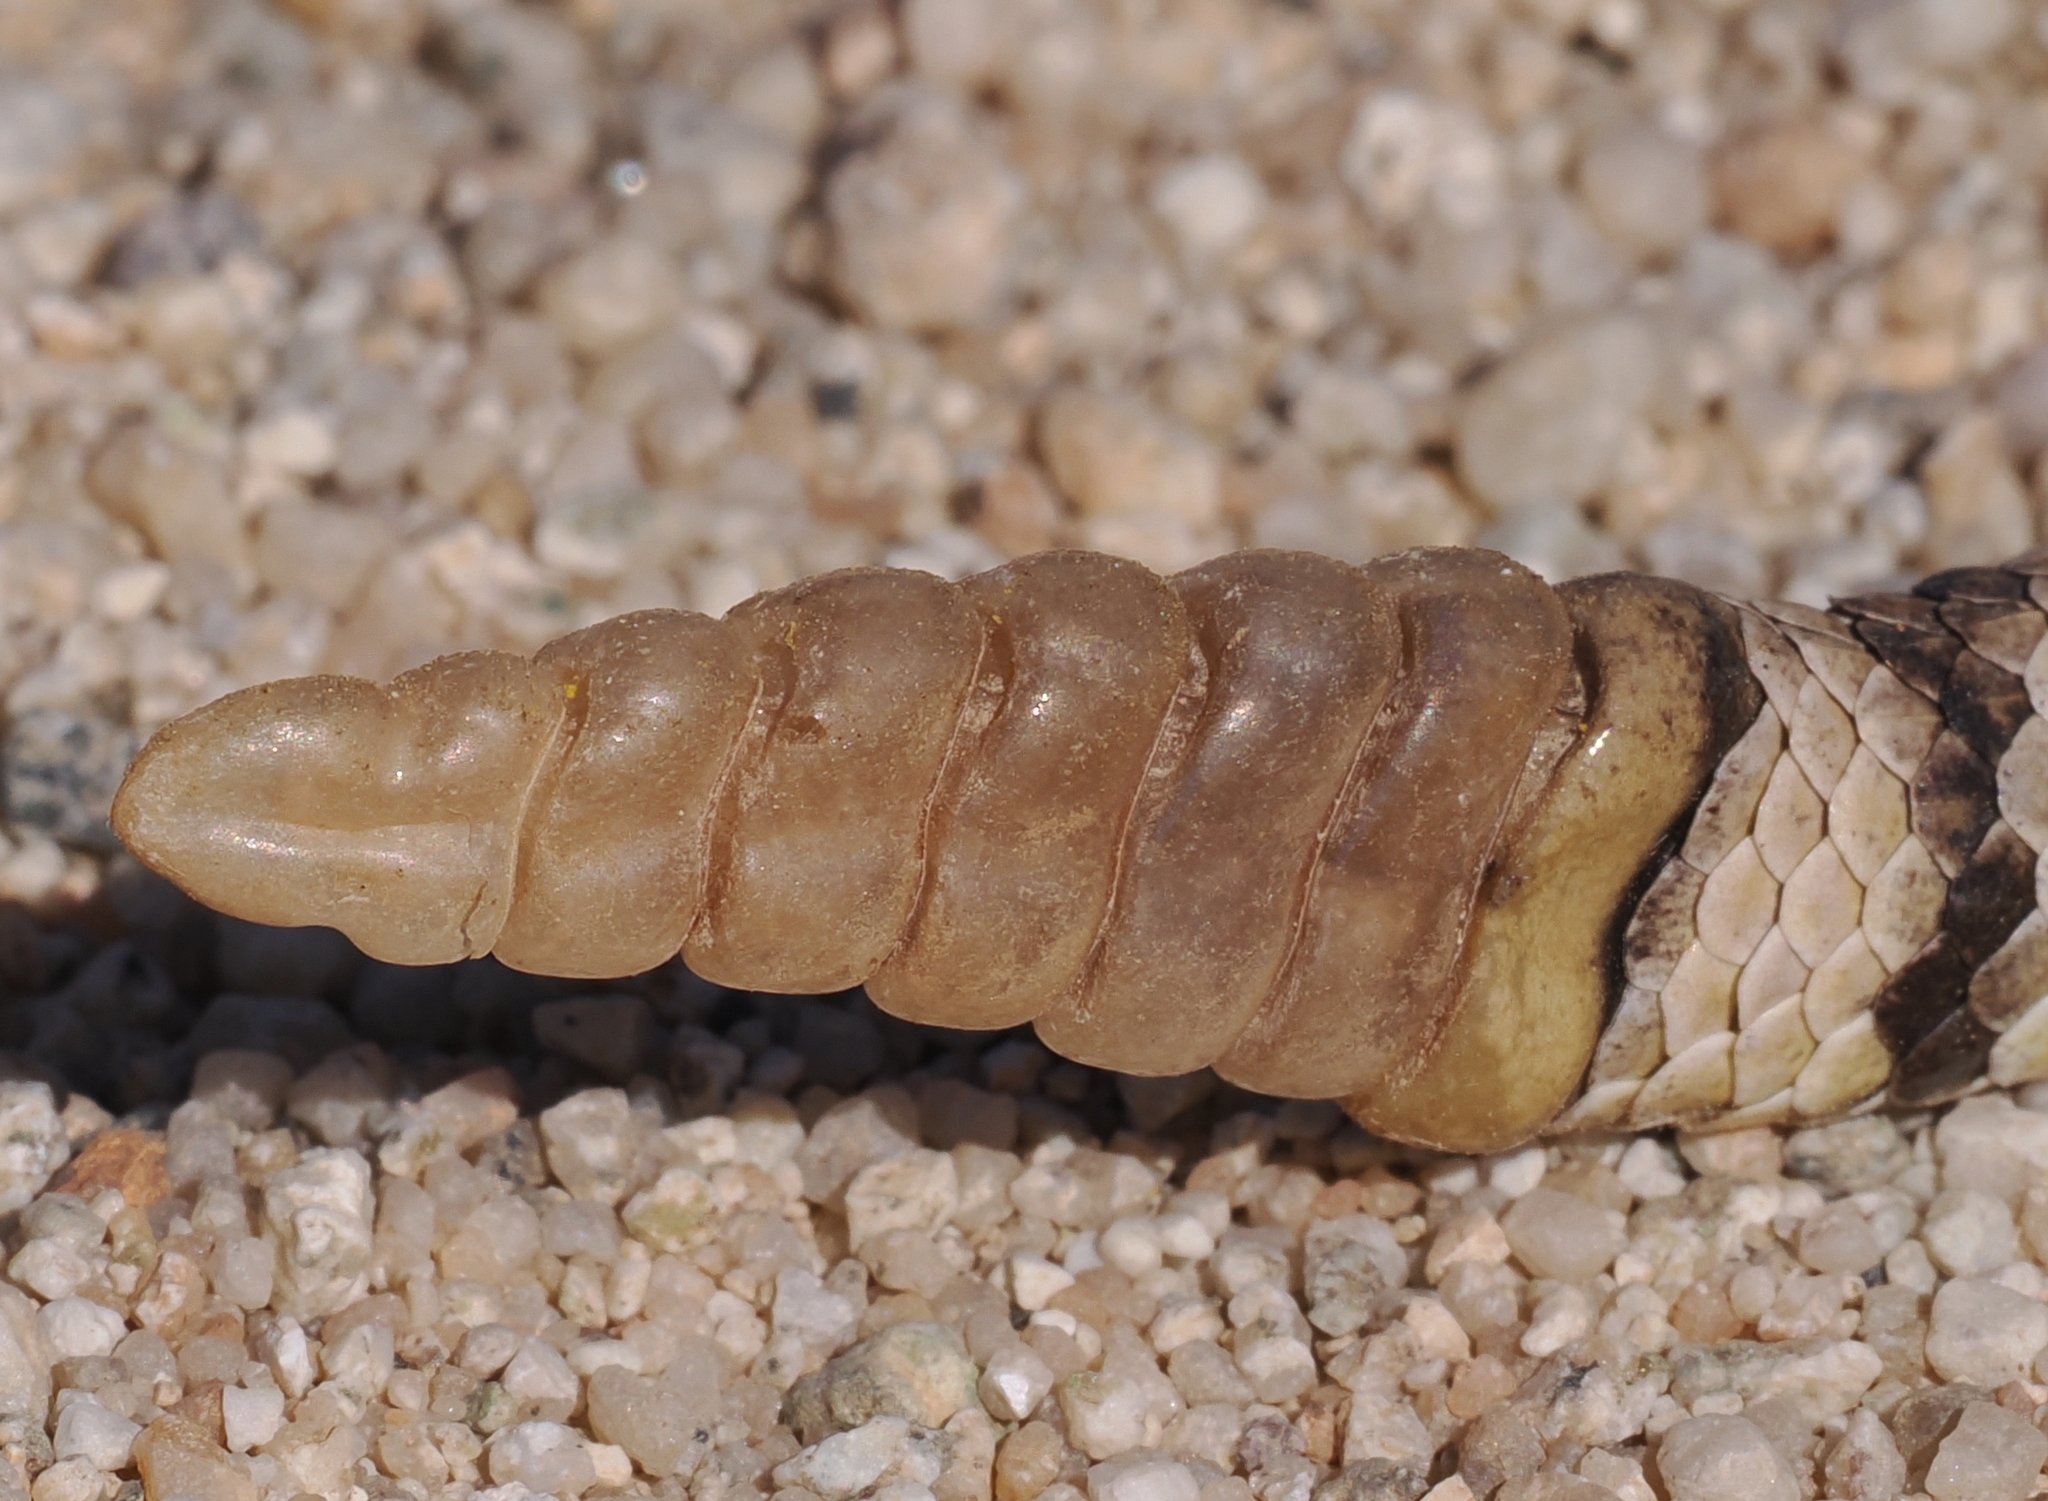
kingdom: Animalia
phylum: Chordata
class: Squamata
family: Viperidae
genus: Crotalus
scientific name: Crotalus scutulatus
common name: Scutulatus
